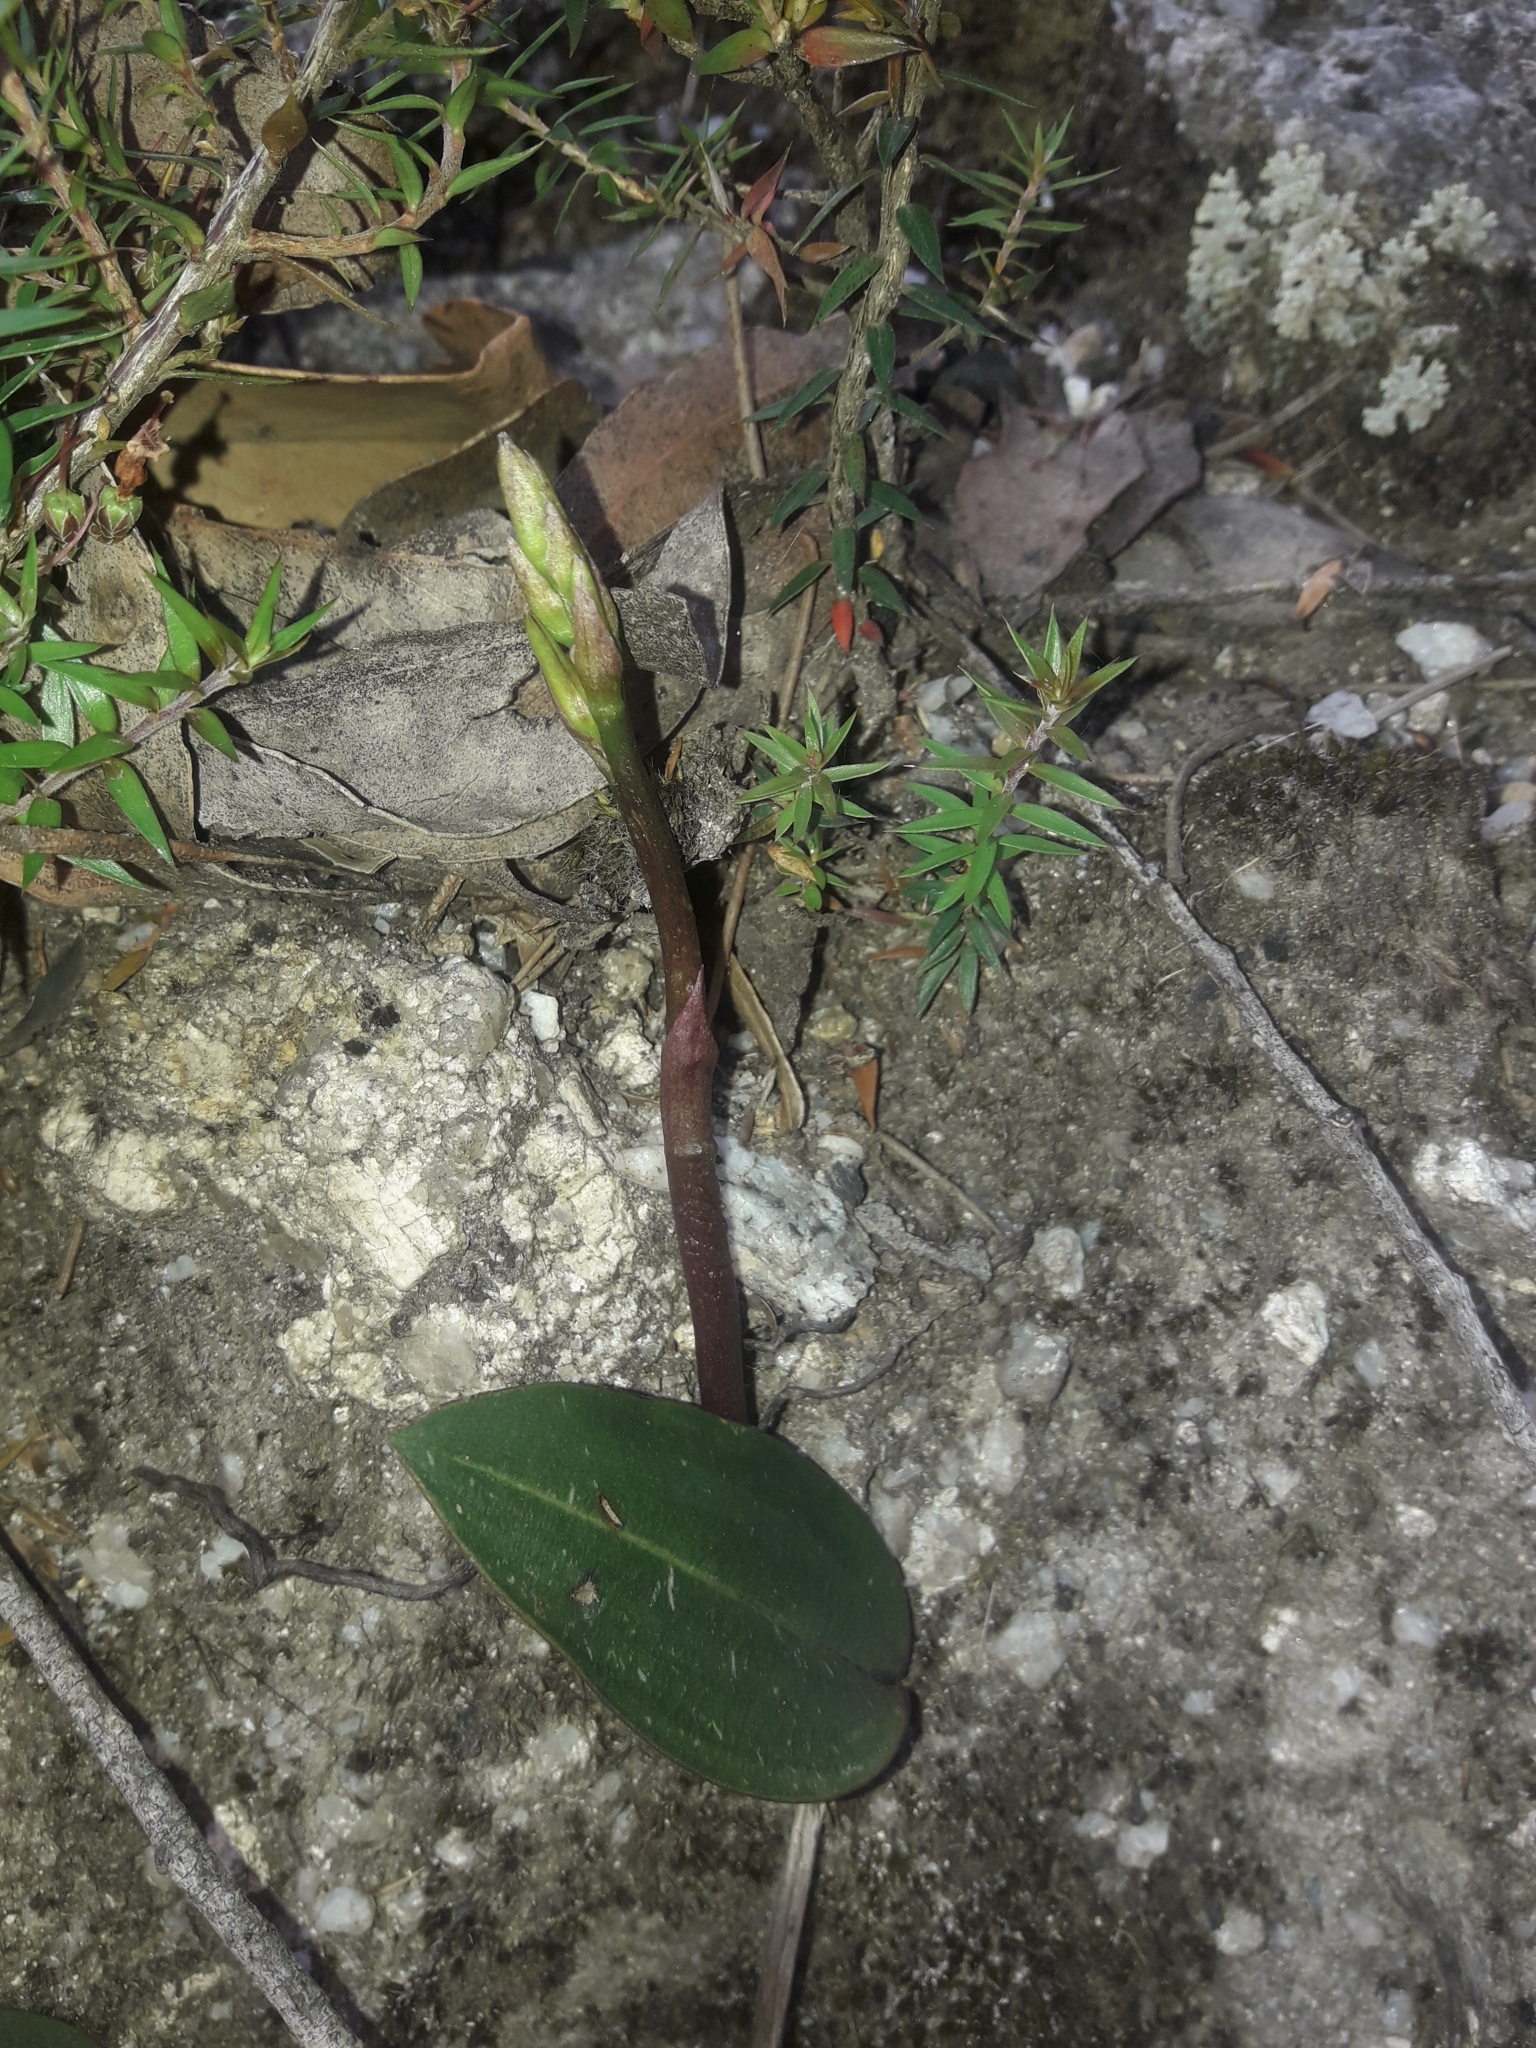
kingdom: Plantae
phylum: Tracheophyta
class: Liliopsida
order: Asparagales
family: Orchidaceae
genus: Cryptostylis
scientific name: Cryptostylis leptochila
